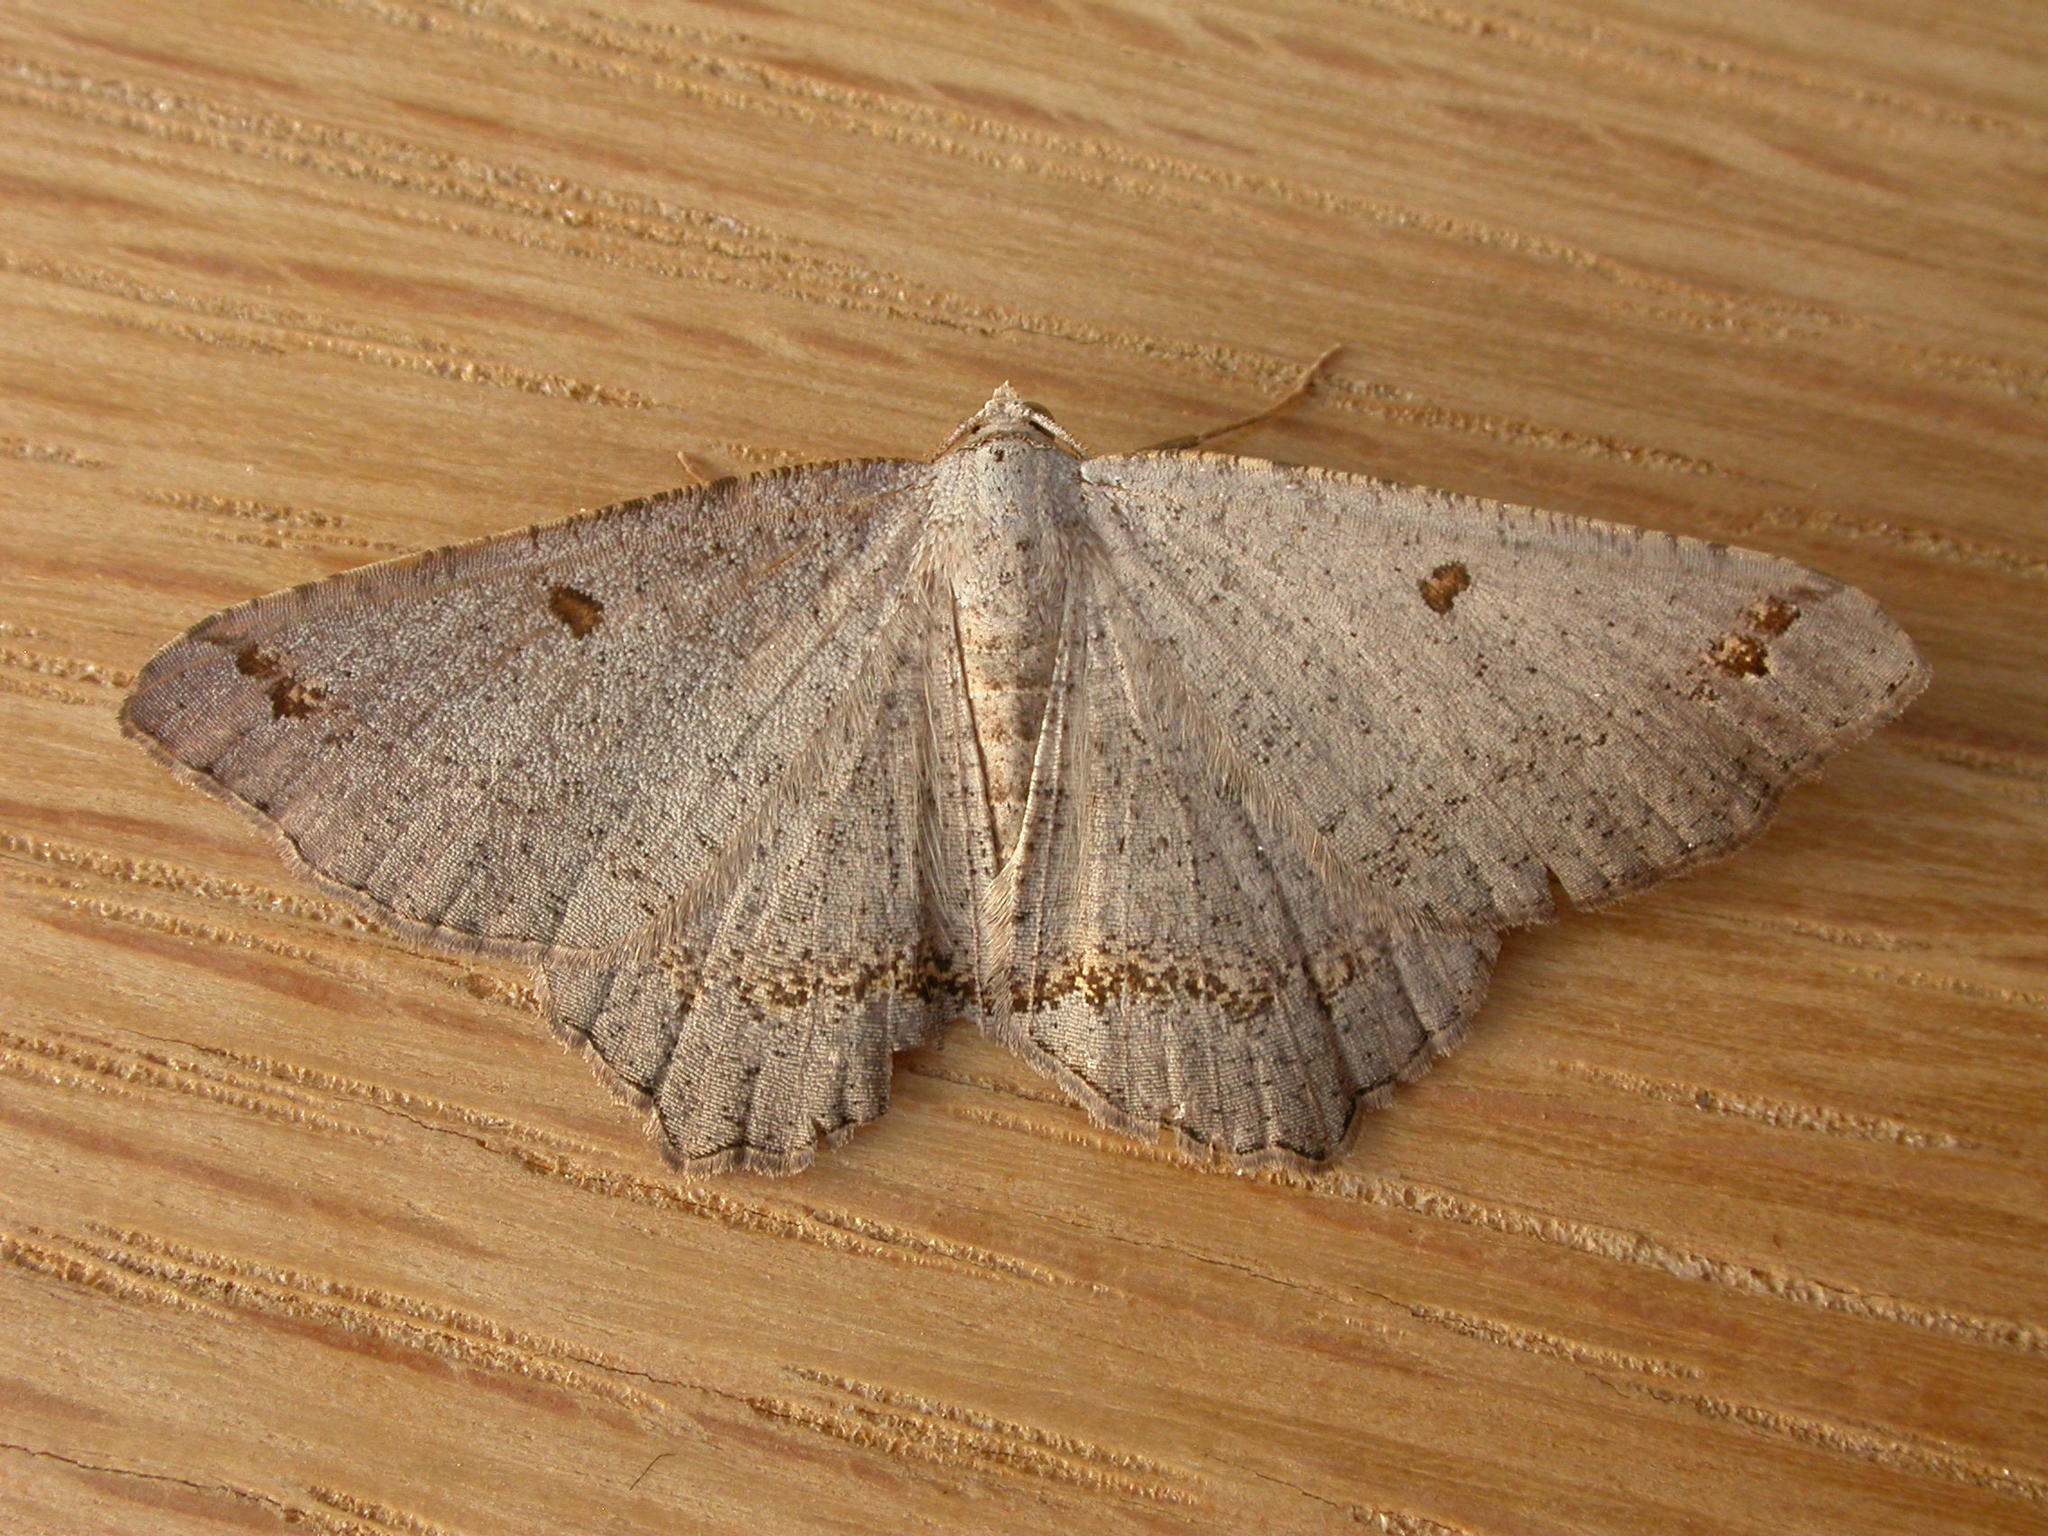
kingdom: Animalia
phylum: Arthropoda
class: Insecta
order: Lepidoptera
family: Geometridae
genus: Dissomorphia
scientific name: Dissomorphia australiaria
